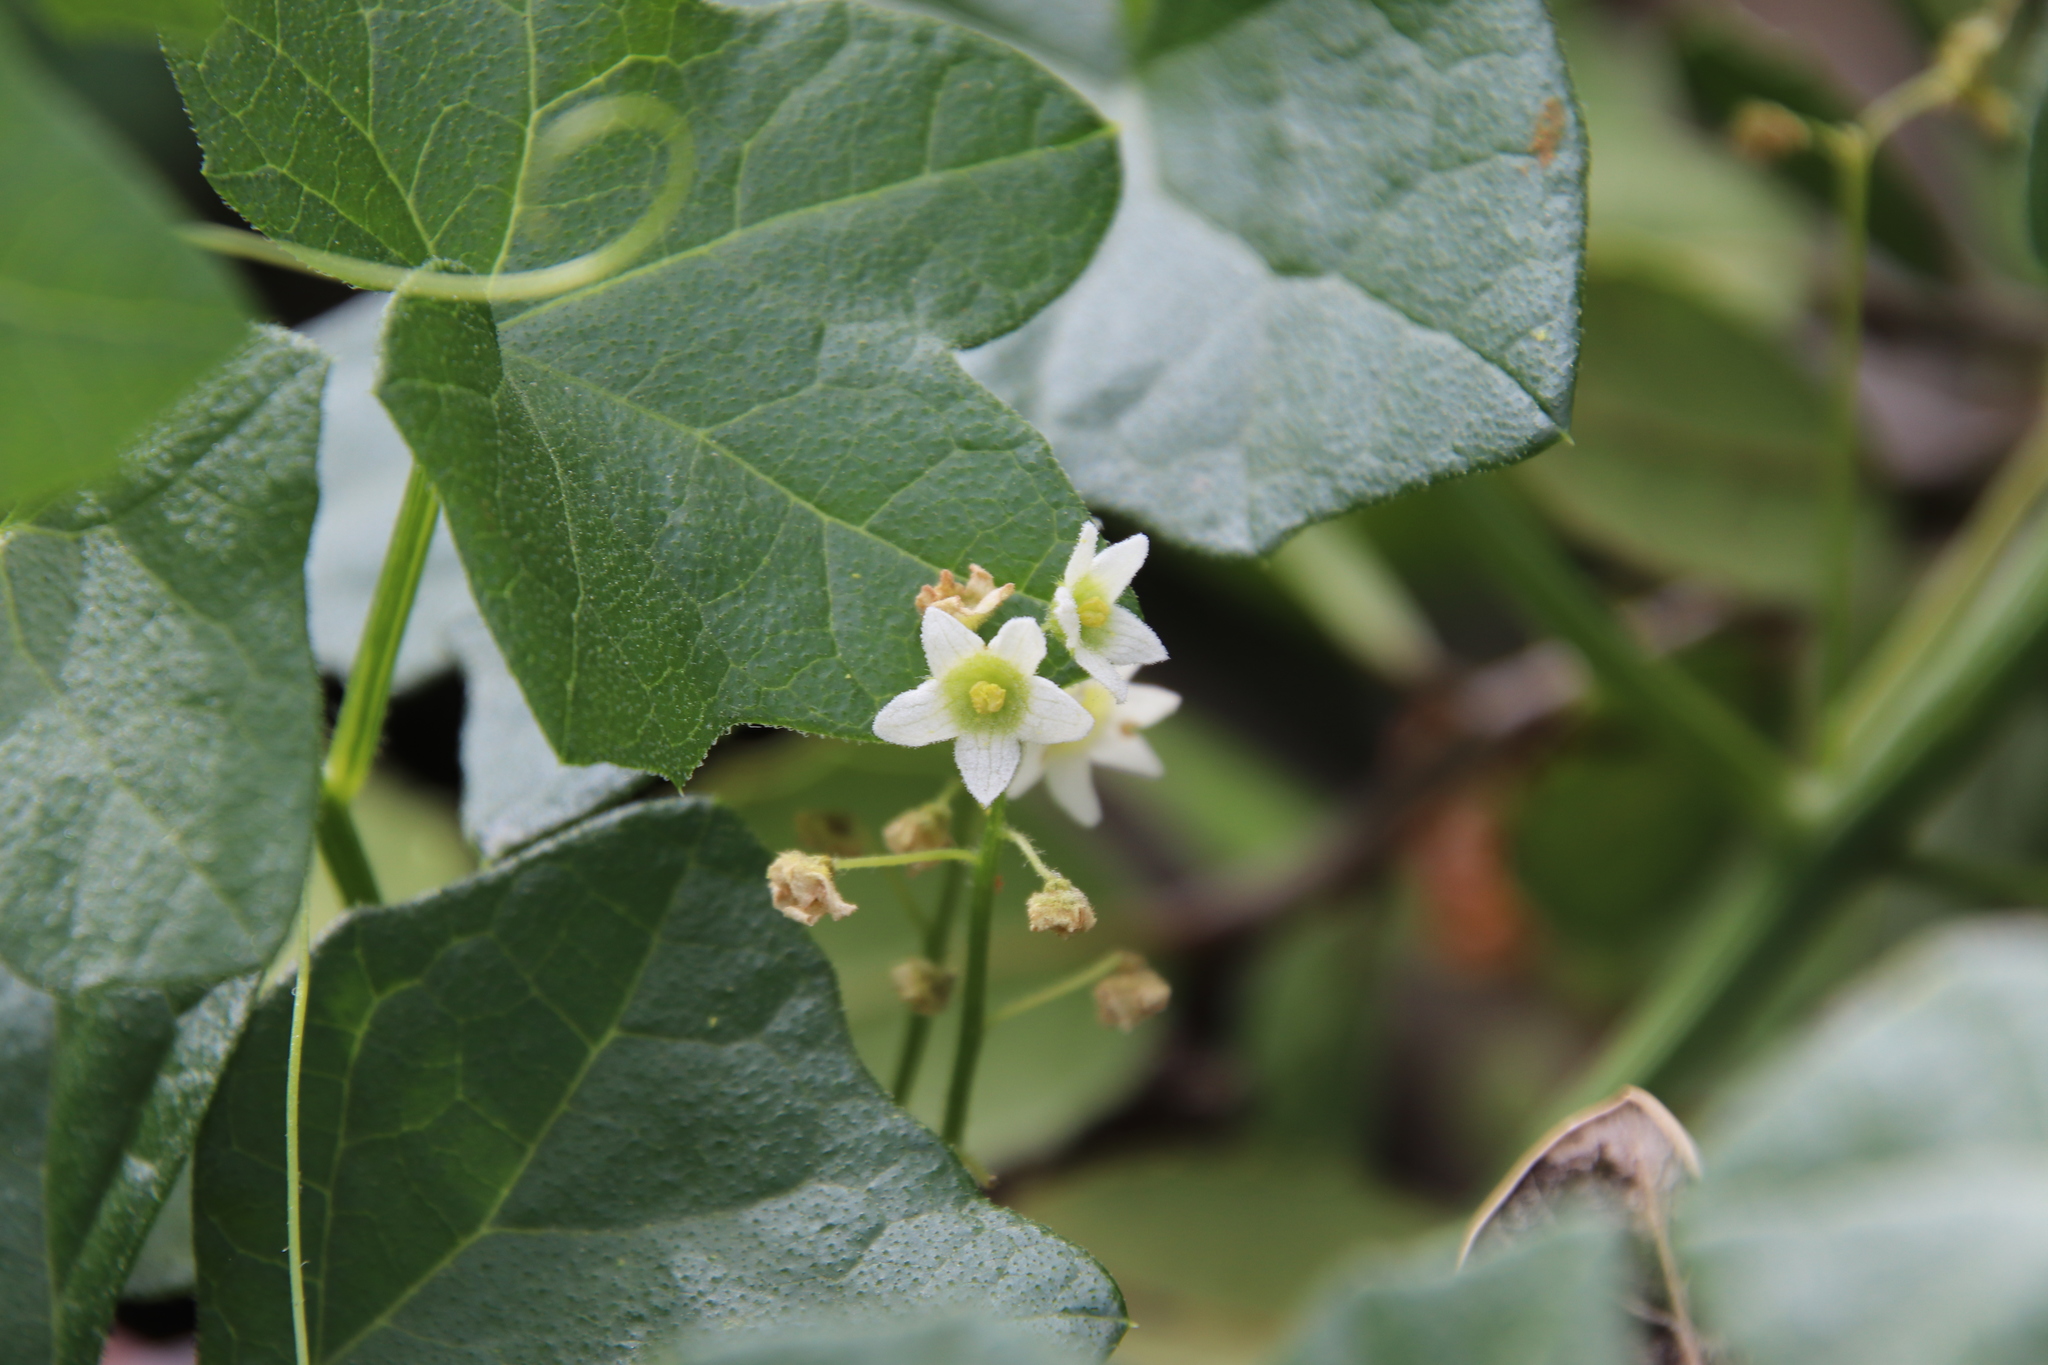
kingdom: Plantae
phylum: Tracheophyta
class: Magnoliopsida
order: Cucurbitales
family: Cucurbitaceae
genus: Marah
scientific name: Marah macrocarpa
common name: Cucamonga manroot
